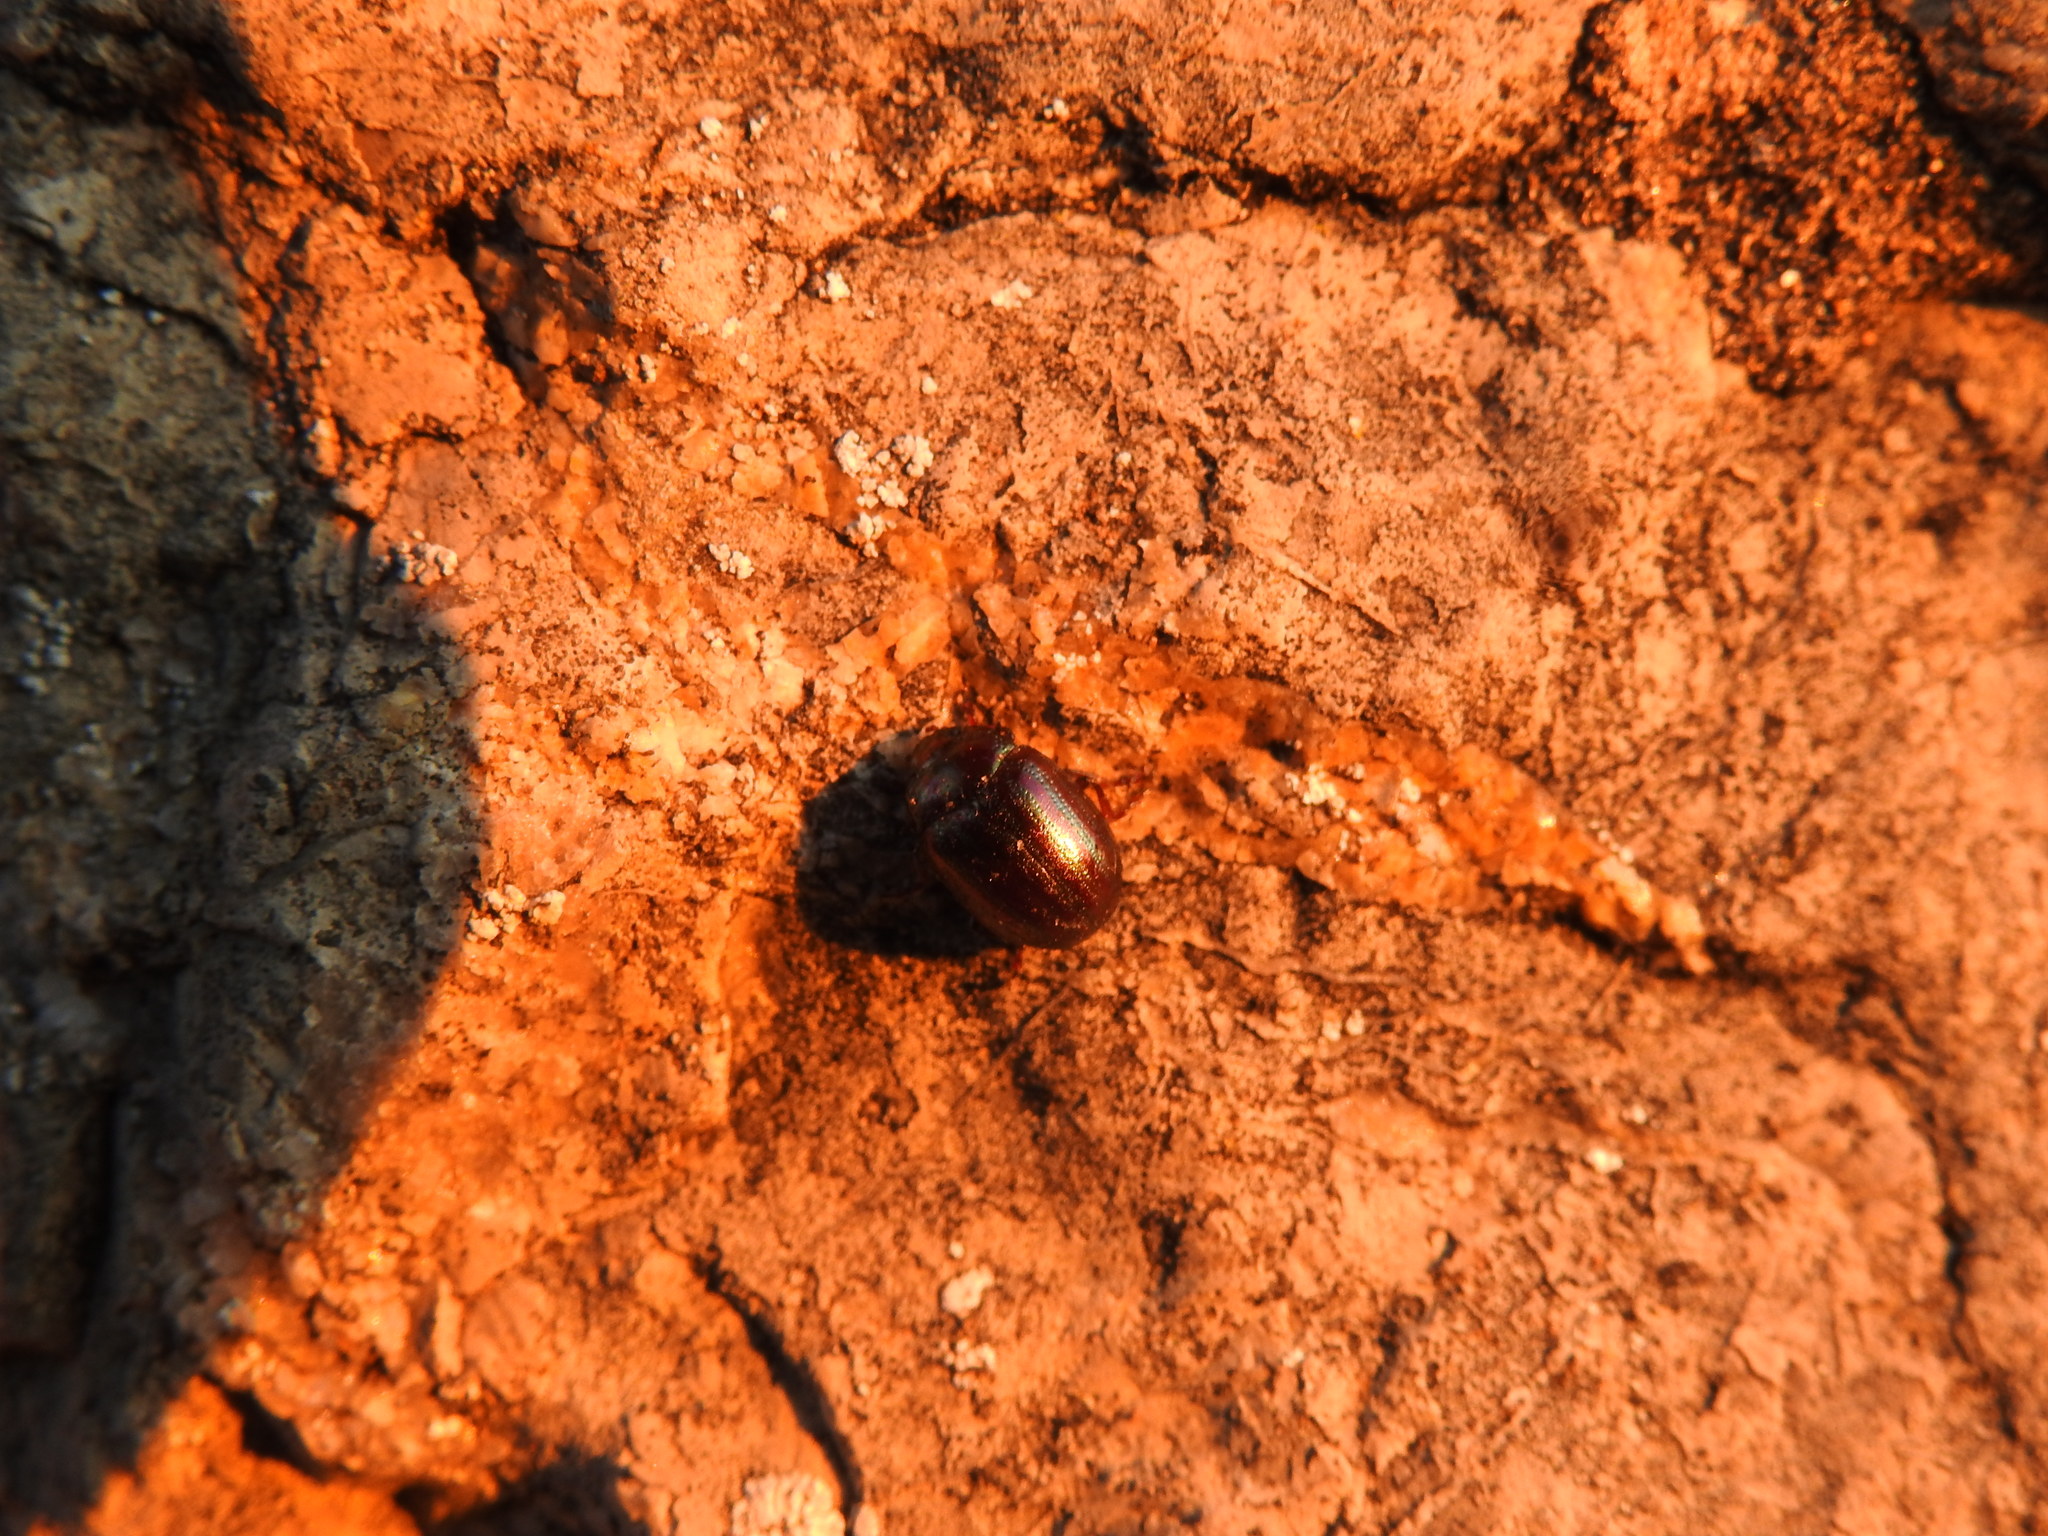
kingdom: Animalia
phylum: Arthropoda
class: Insecta
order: Coleoptera
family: Chrysomelidae
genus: Chrysolina
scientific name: Chrysolina americana
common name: Rosemary beetle
